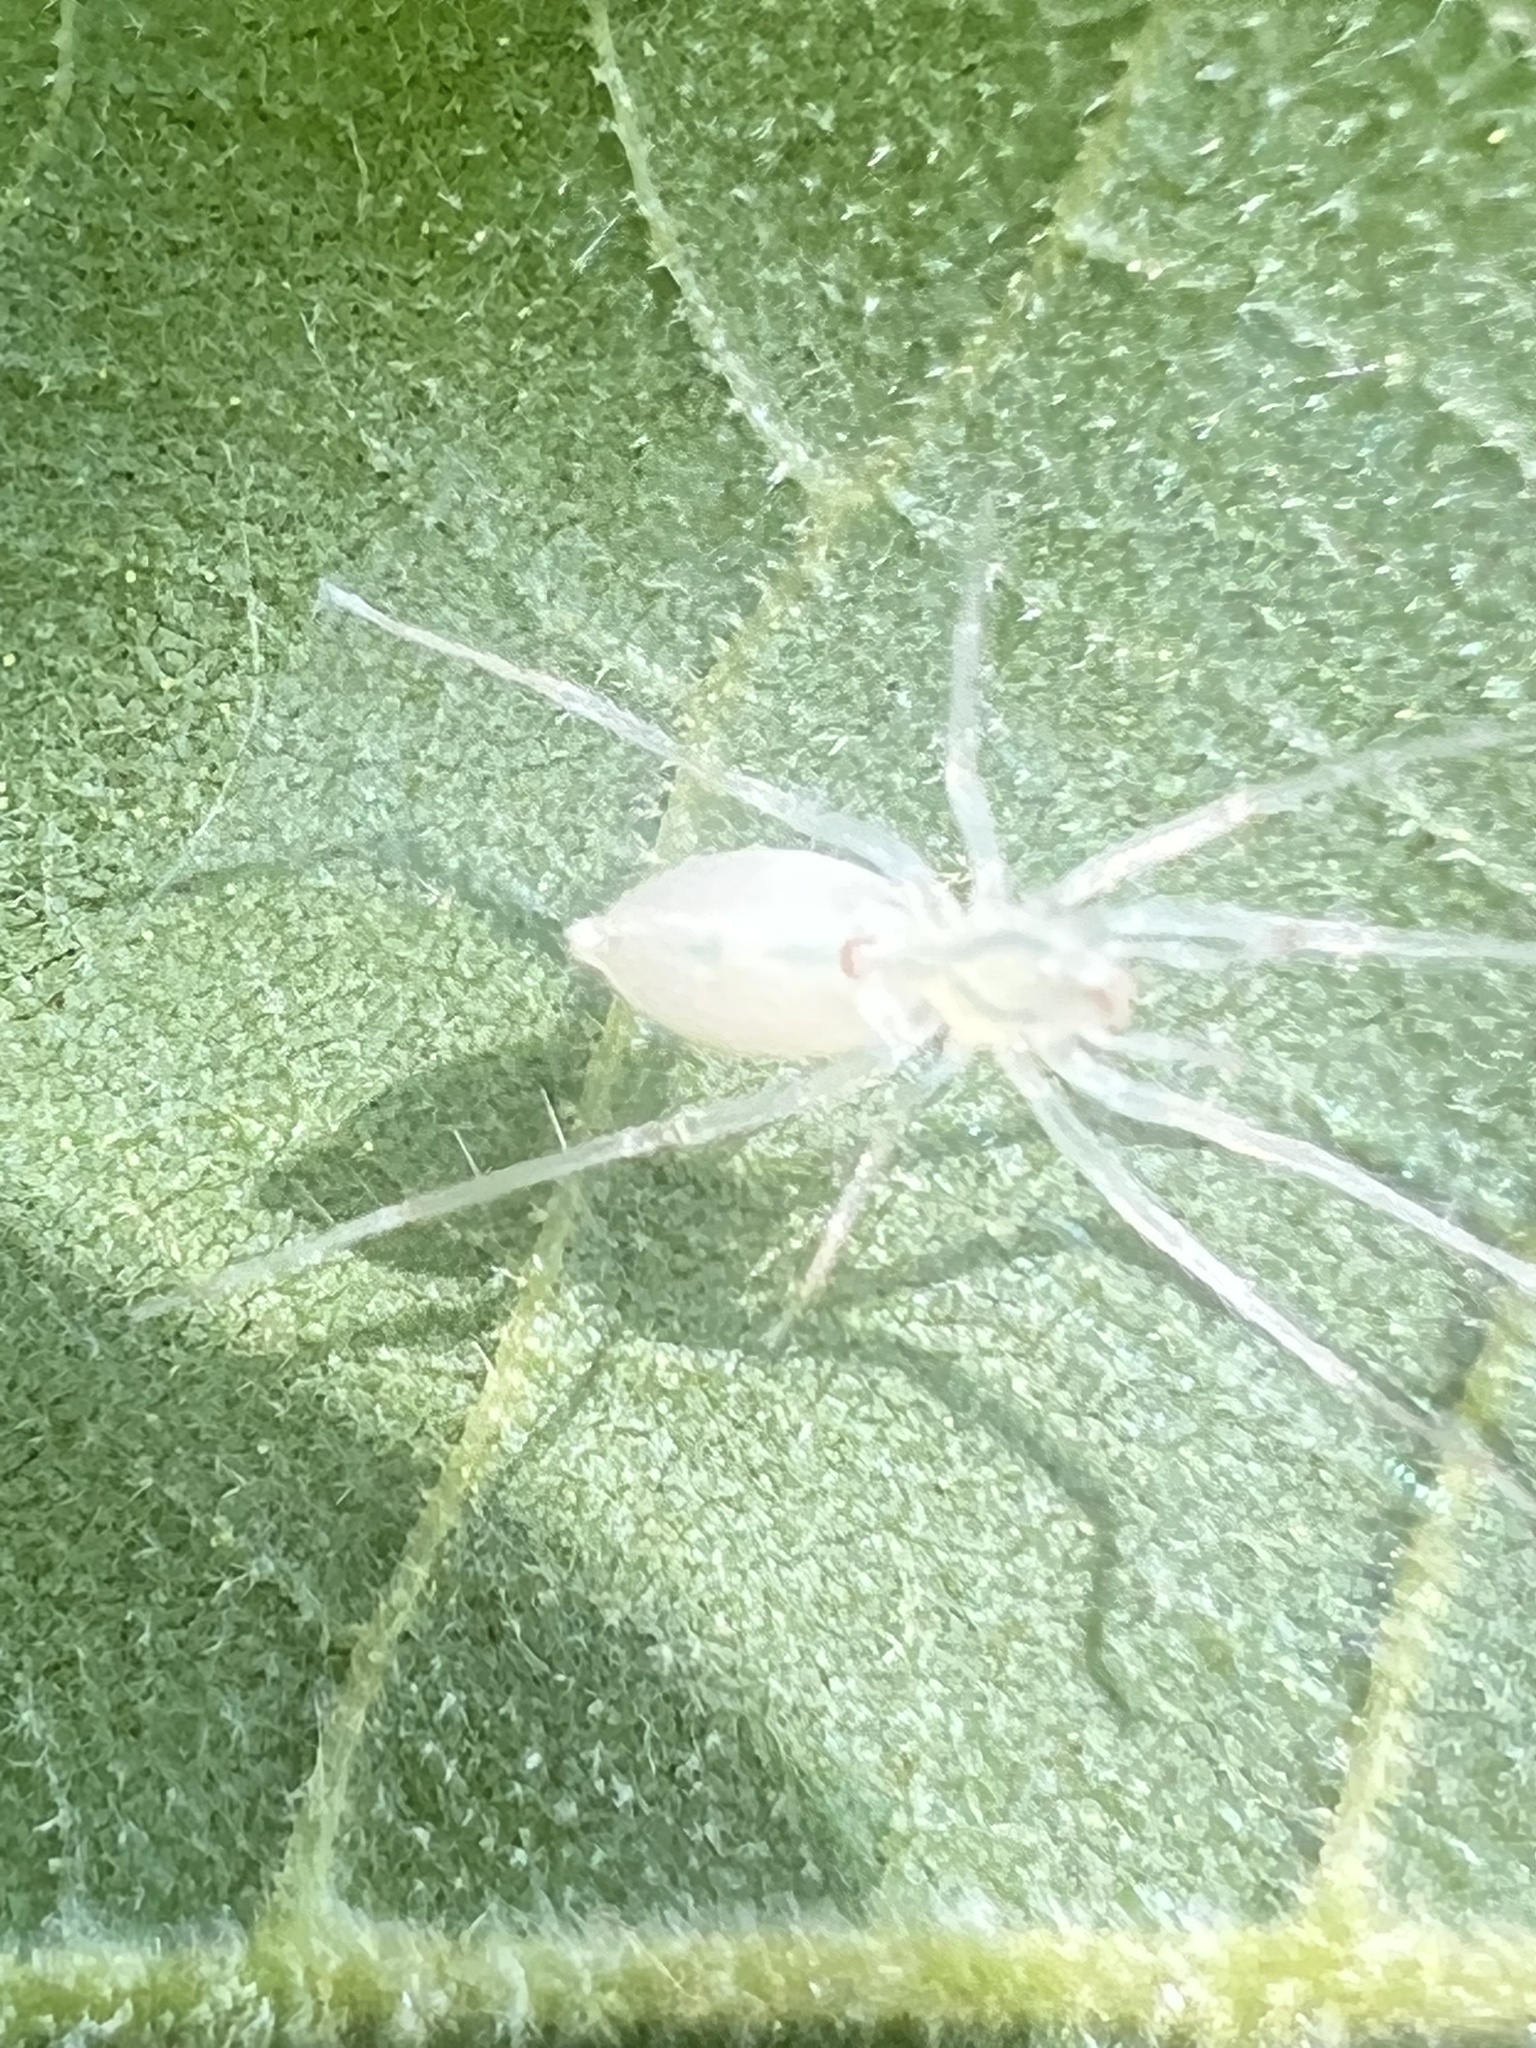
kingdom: Animalia
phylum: Arthropoda
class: Arachnida
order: Araneae
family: Anyphaenidae
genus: Wulfila
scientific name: Wulfila albens
